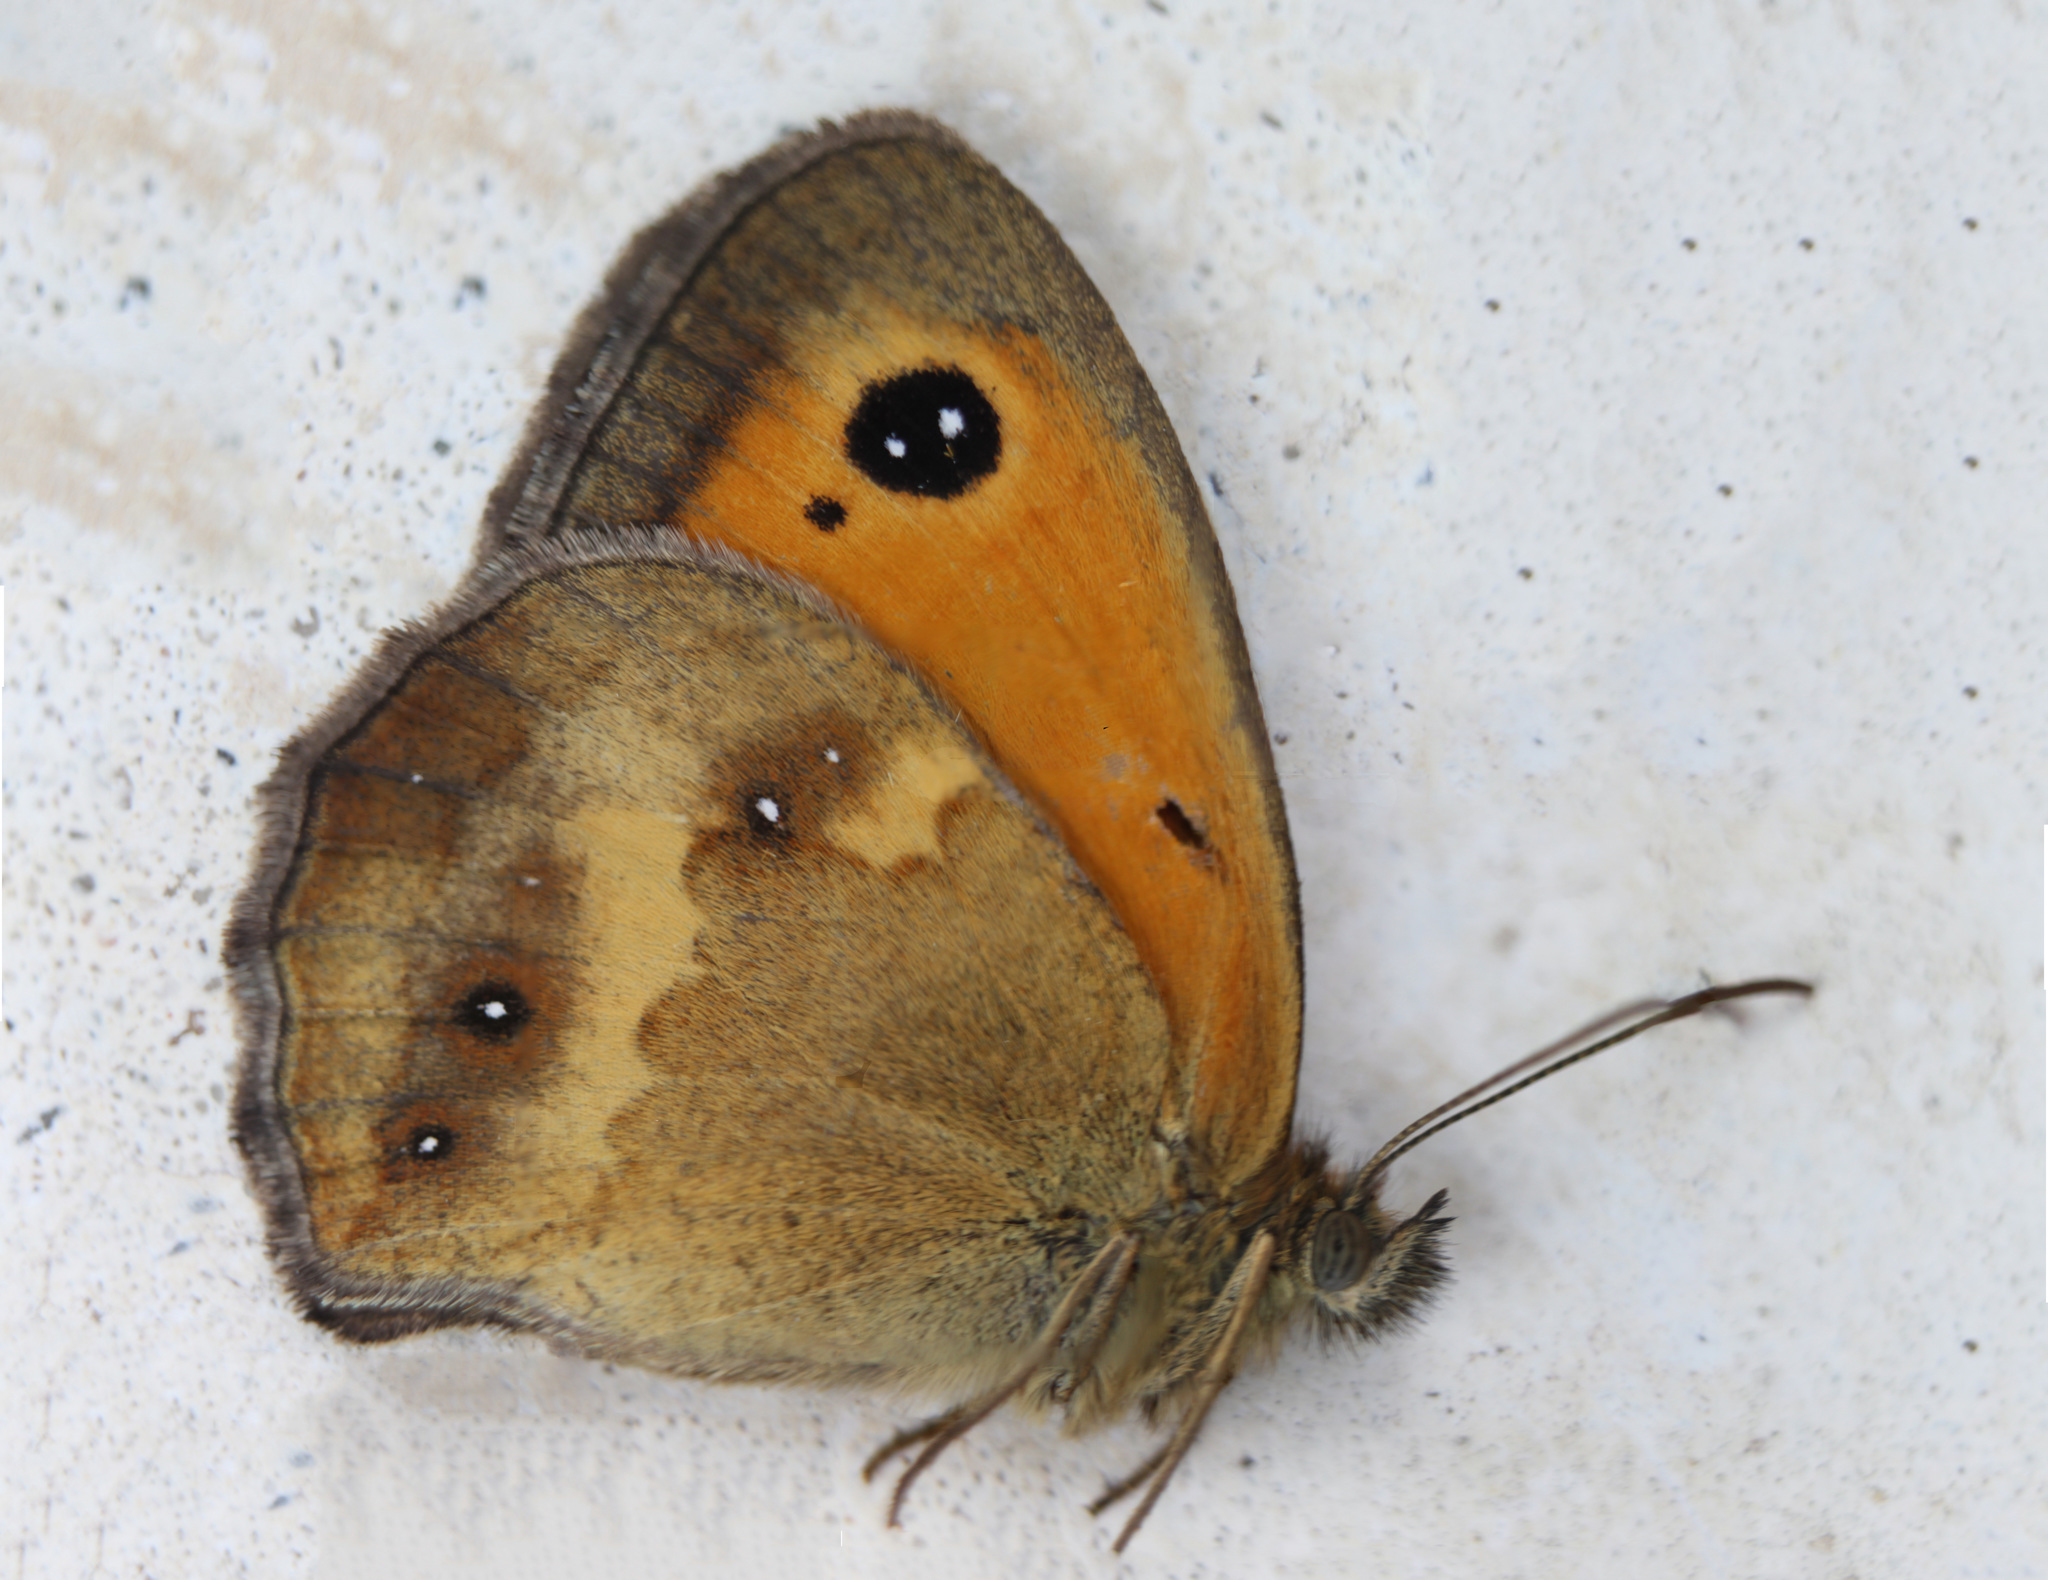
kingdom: Animalia
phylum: Arthropoda
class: Insecta
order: Lepidoptera
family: Nymphalidae
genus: Pyronia
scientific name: Pyronia tithonus
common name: Gatekeeper
